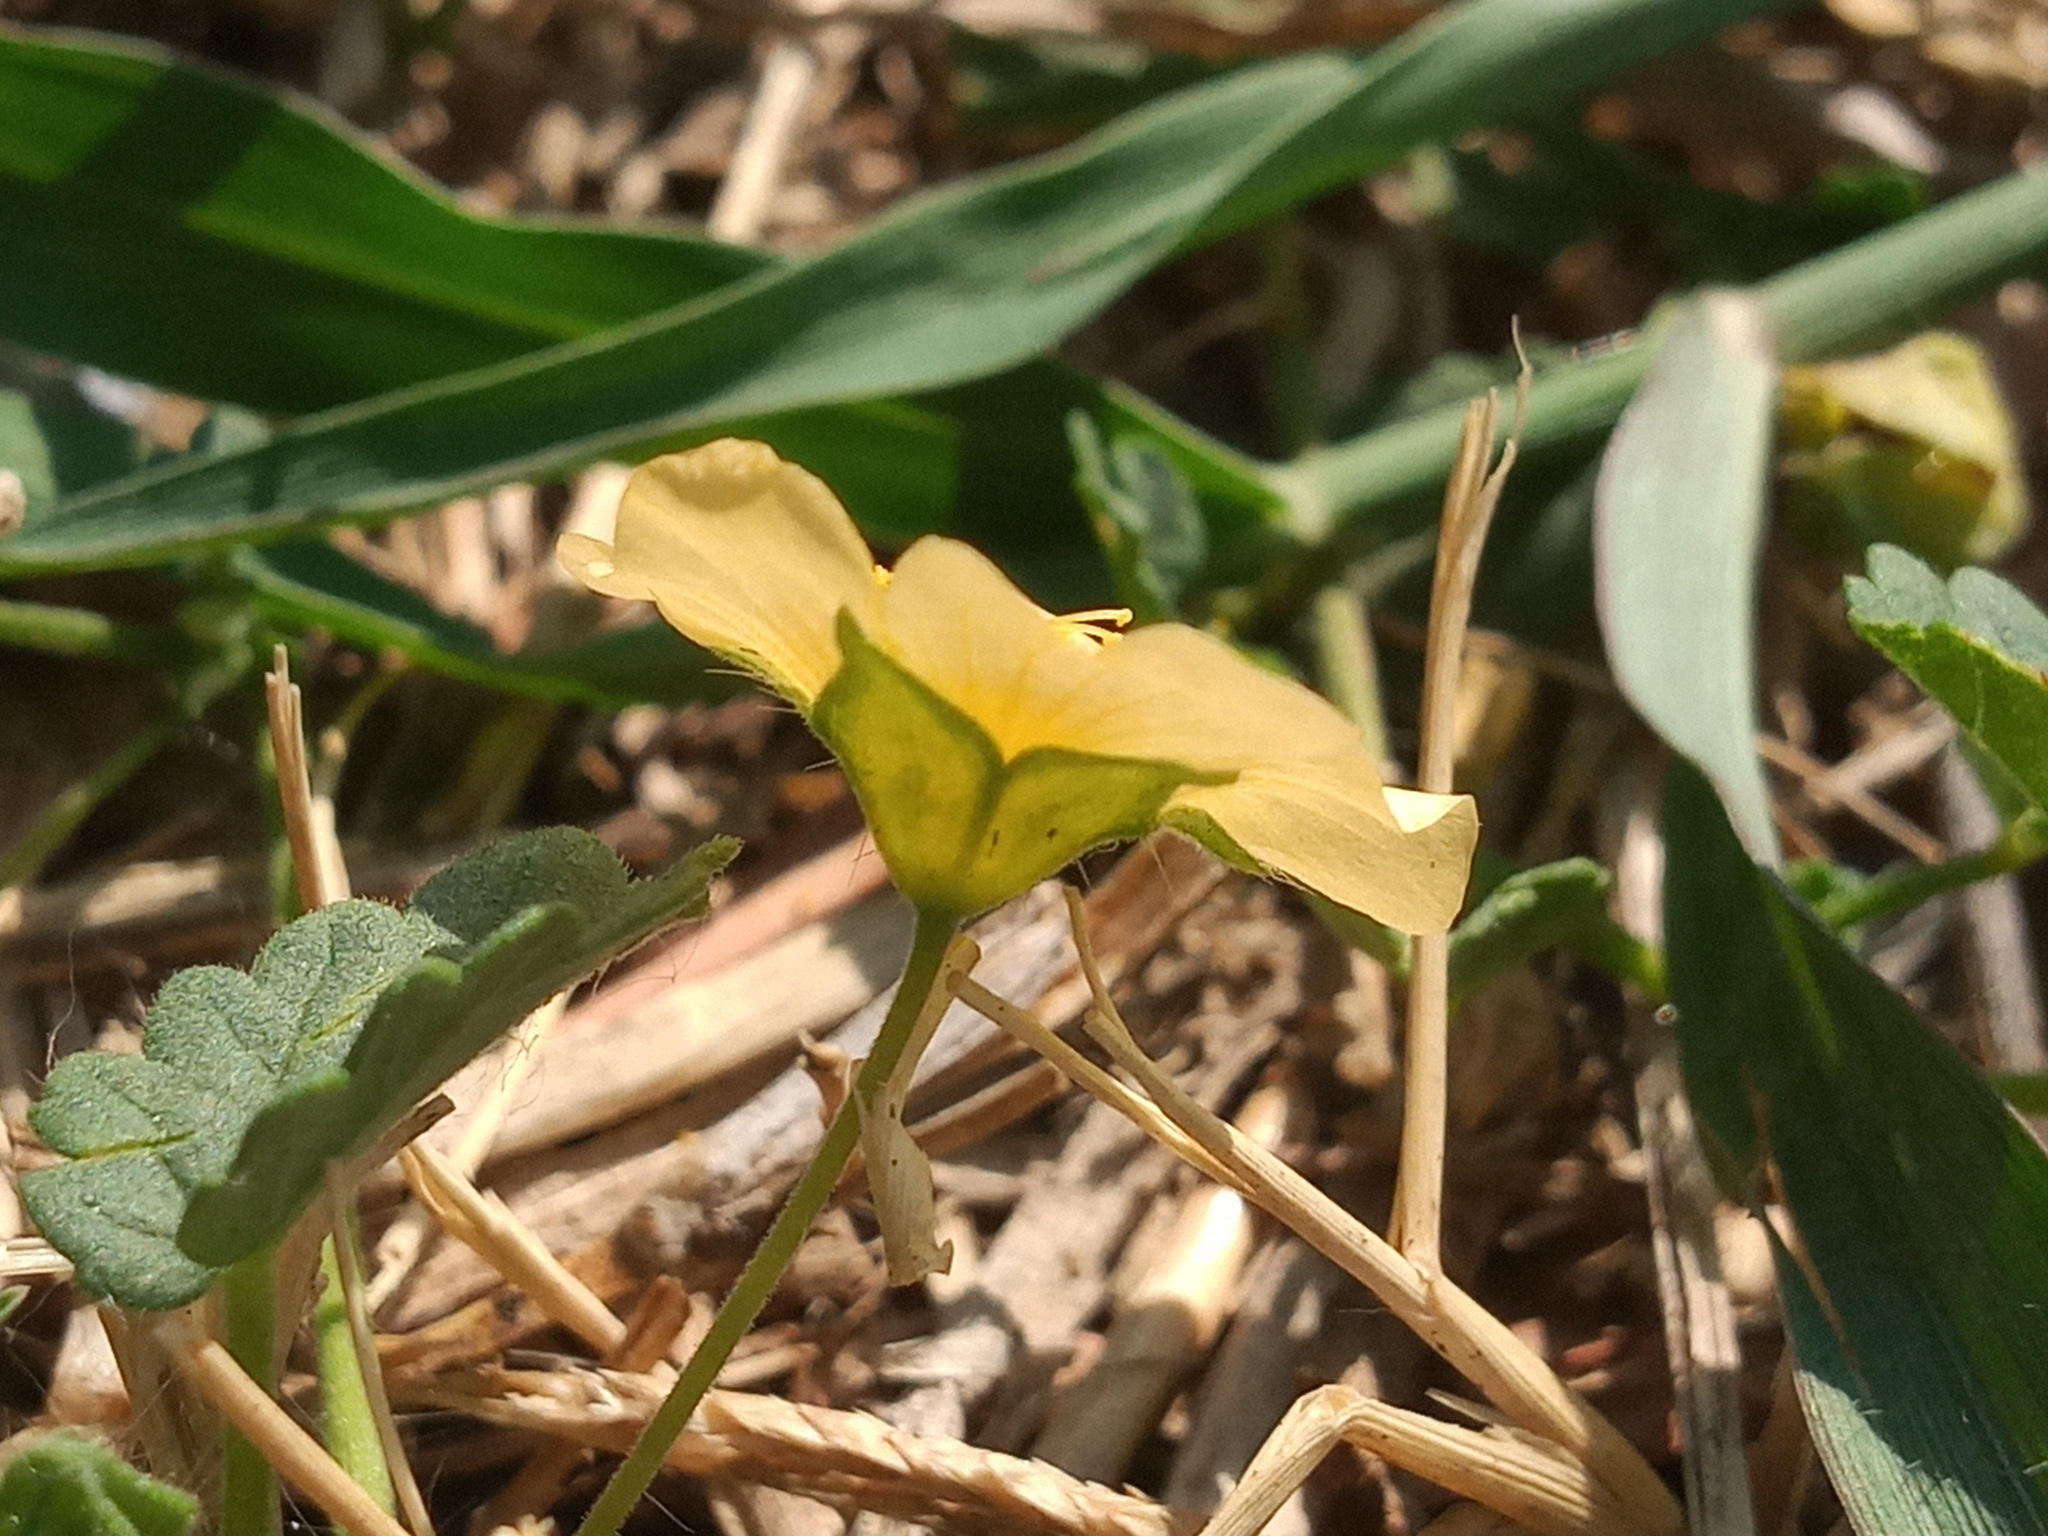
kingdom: Plantae
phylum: Tracheophyta
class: Magnoliopsida
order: Malvales
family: Malvaceae
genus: Sida
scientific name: Sida abutilifolia
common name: Spreading fanpetals
